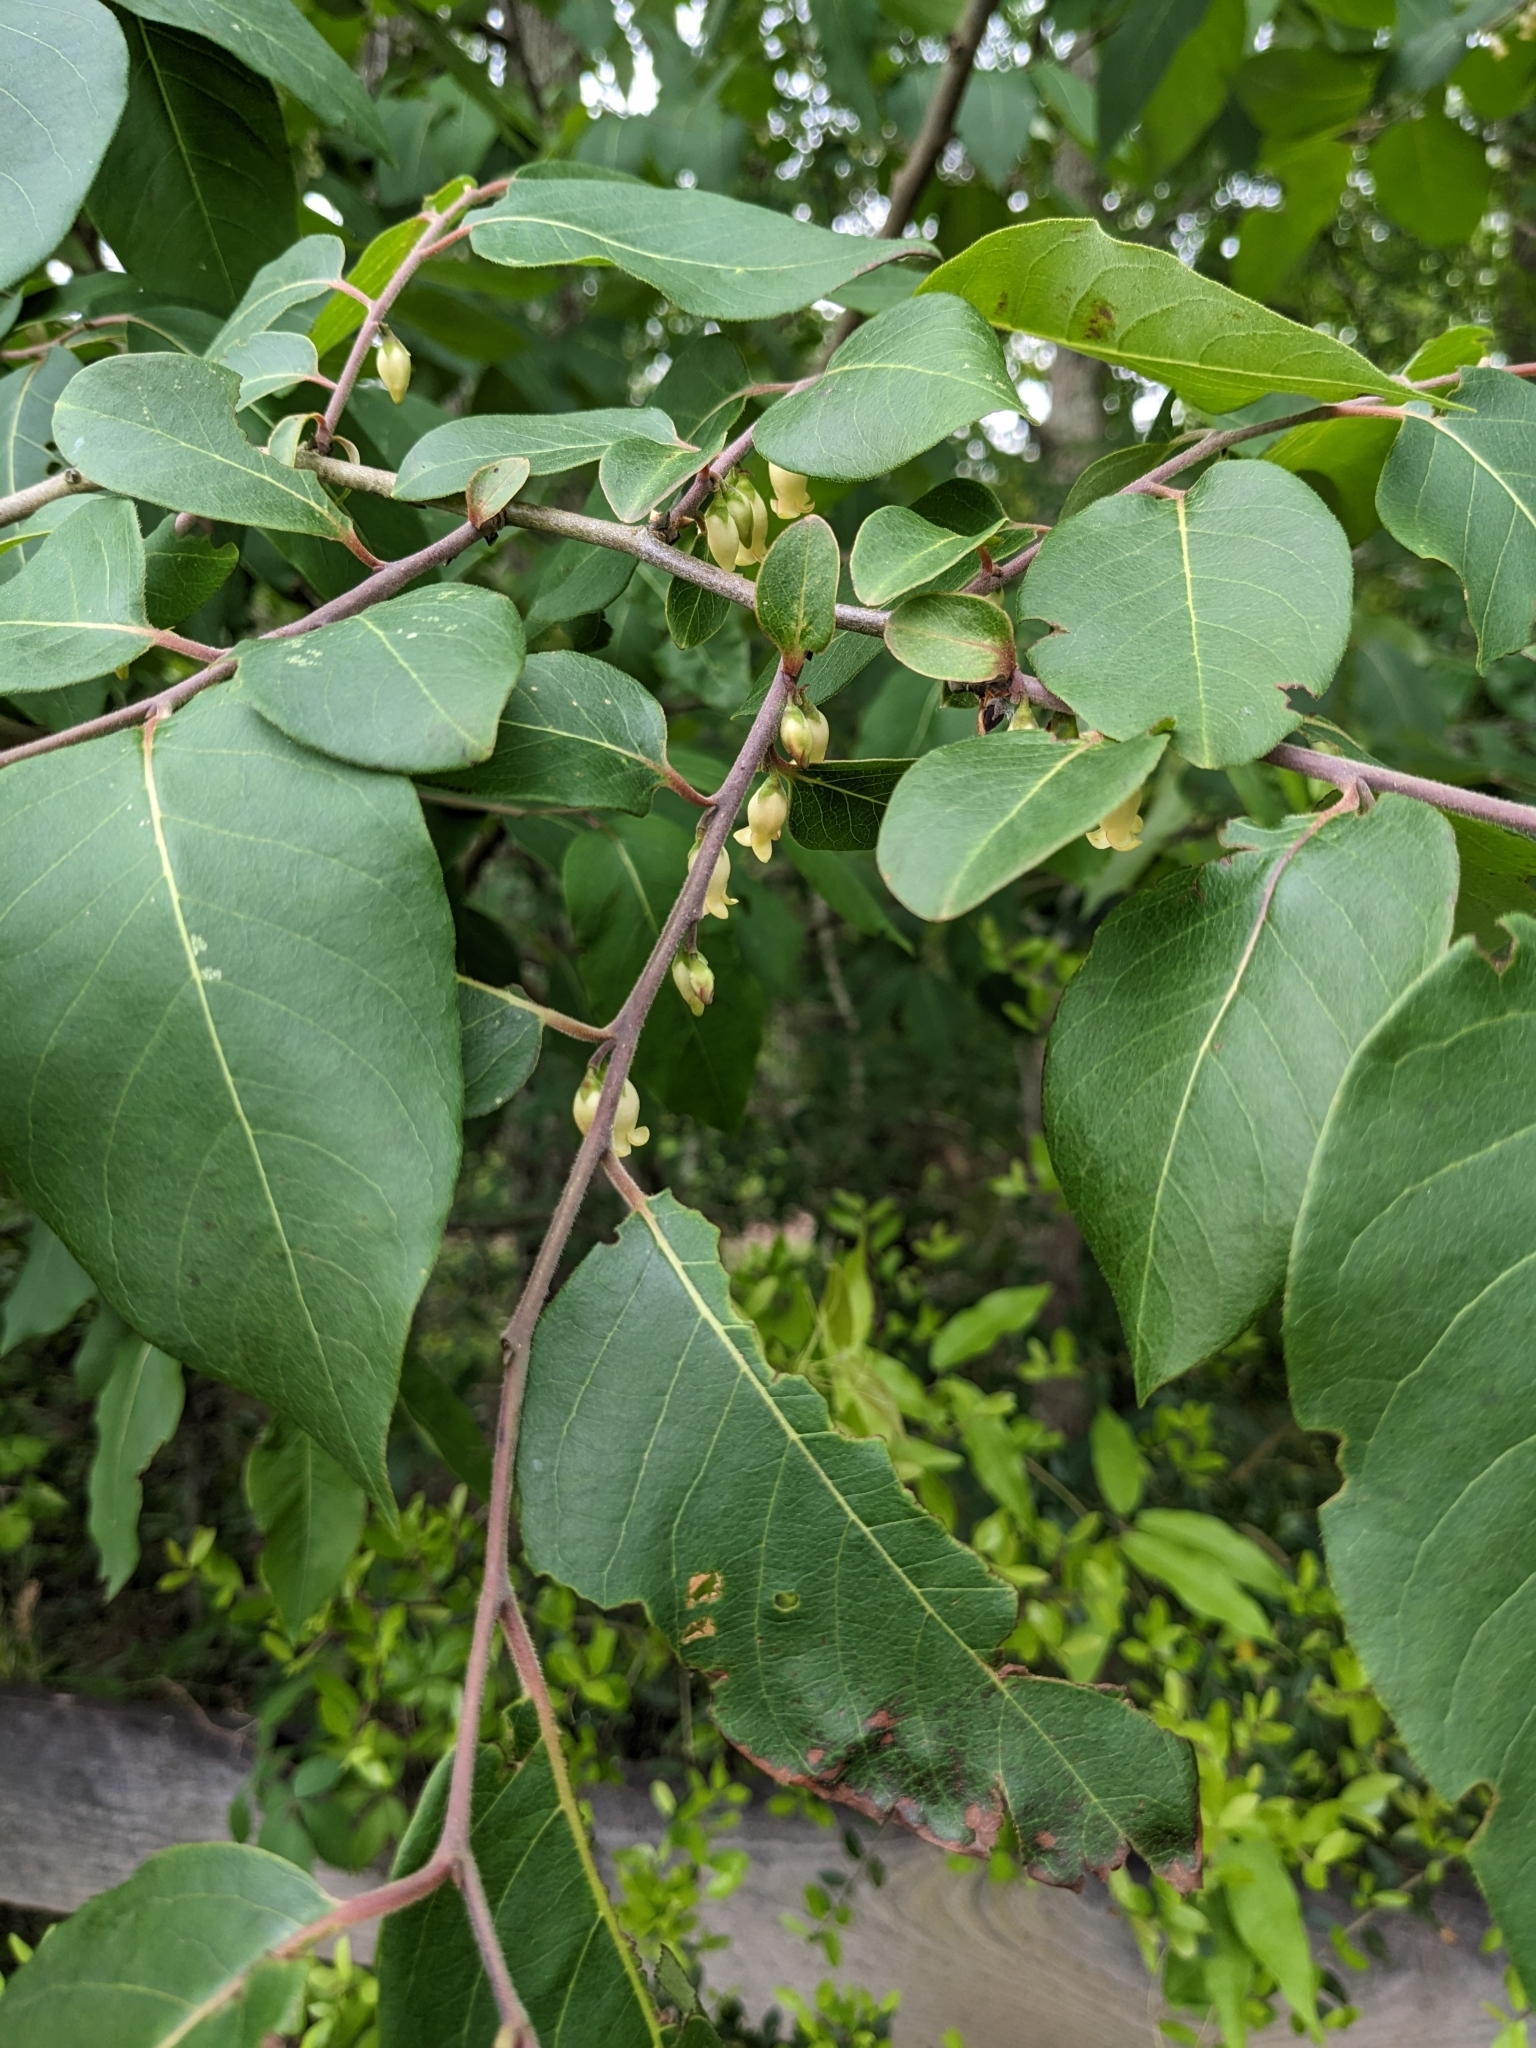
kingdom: Plantae
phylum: Tracheophyta
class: Magnoliopsida
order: Ericales
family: Ebenaceae
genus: Diospyros
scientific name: Diospyros virginiana
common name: Persimmon
